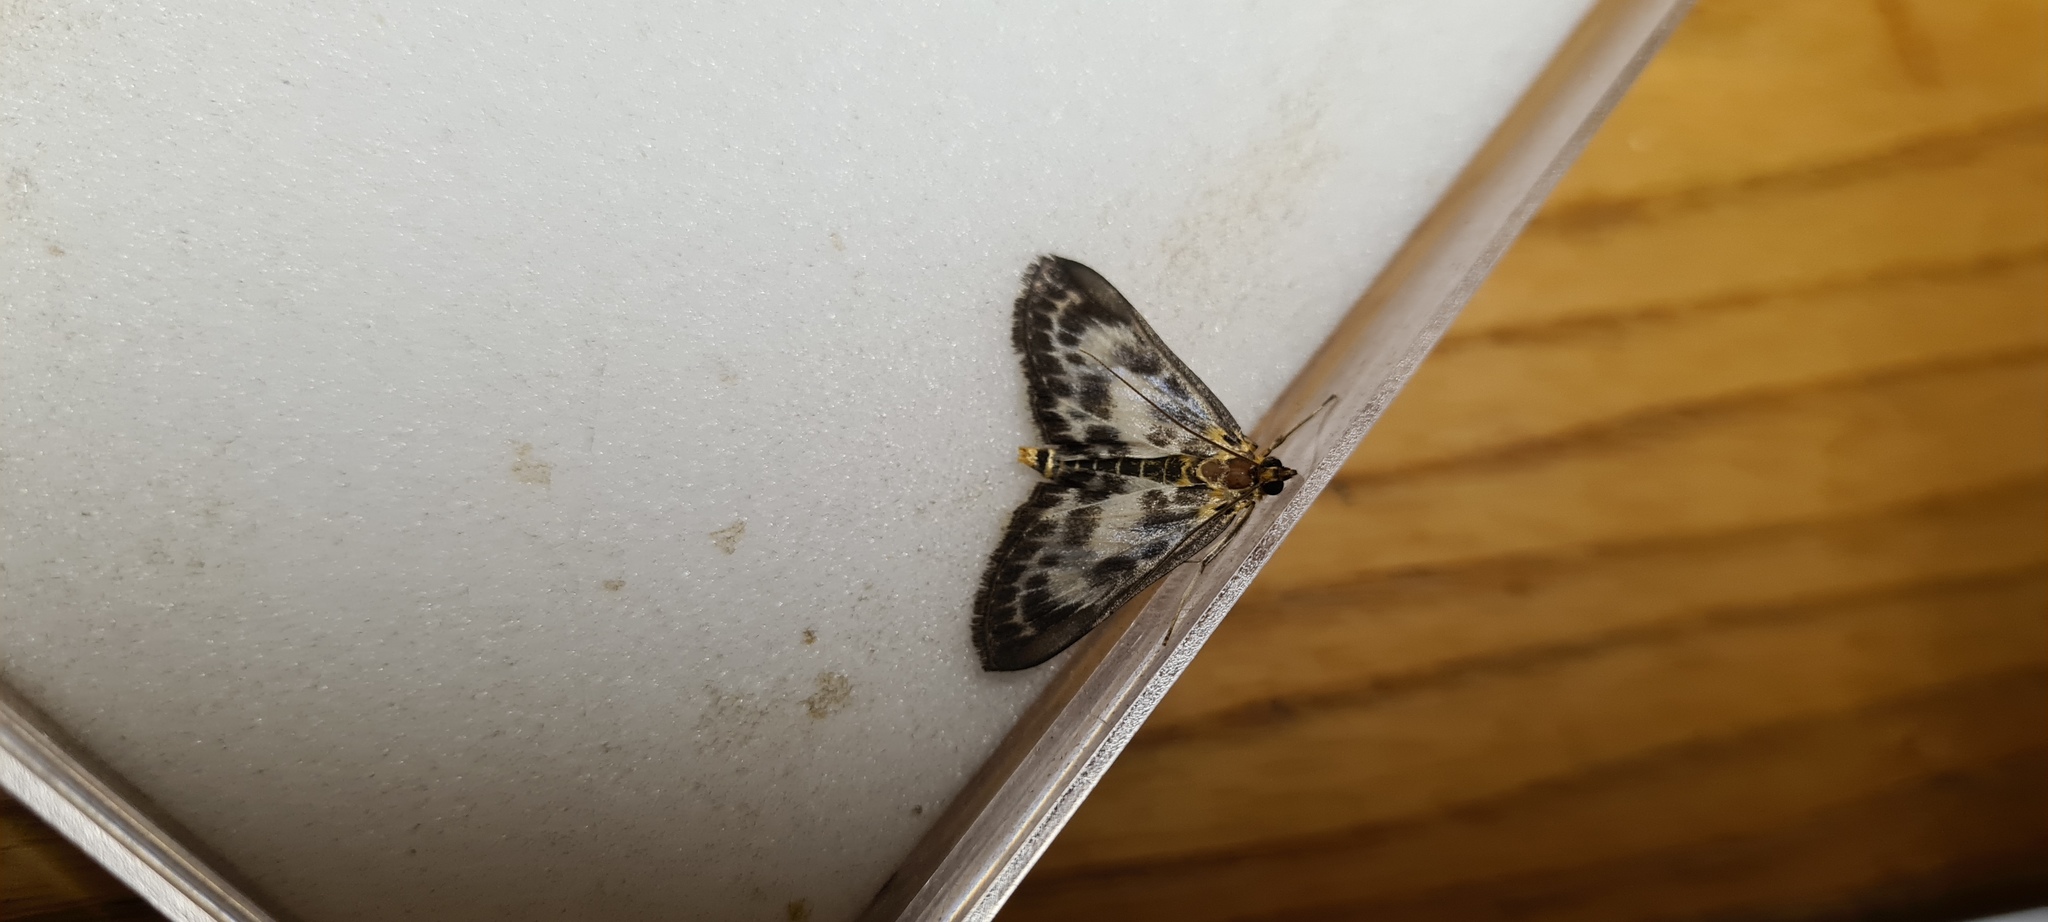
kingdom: Animalia
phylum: Arthropoda
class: Insecta
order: Lepidoptera
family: Crambidae
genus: Anania
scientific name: Anania hortulata
